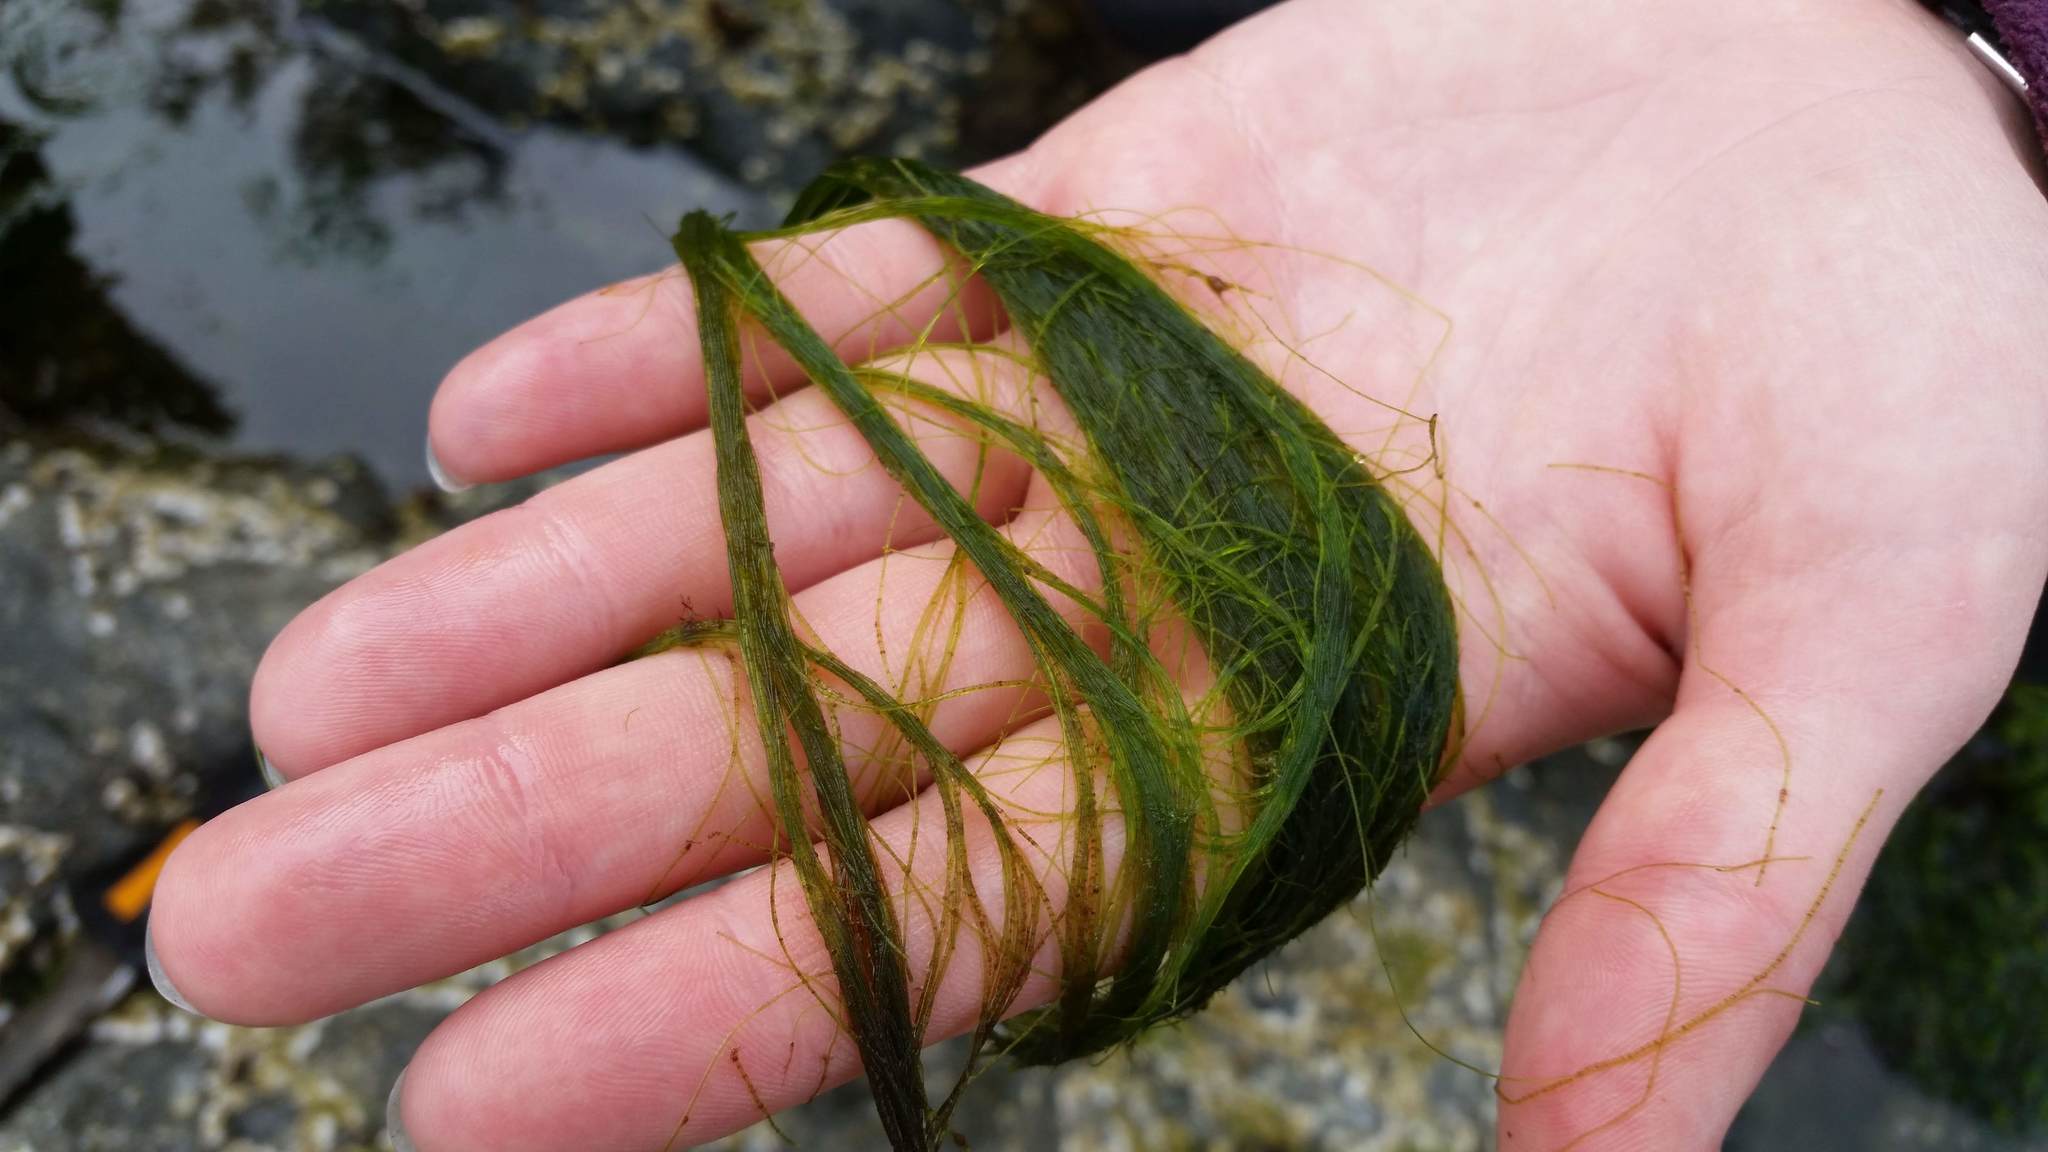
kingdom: Plantae
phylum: Chlorophyta
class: Ulvophyceae
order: Cladophorales
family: Cladophoraceae
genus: Chaetomorpha
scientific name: Chaetomorpha aerea
